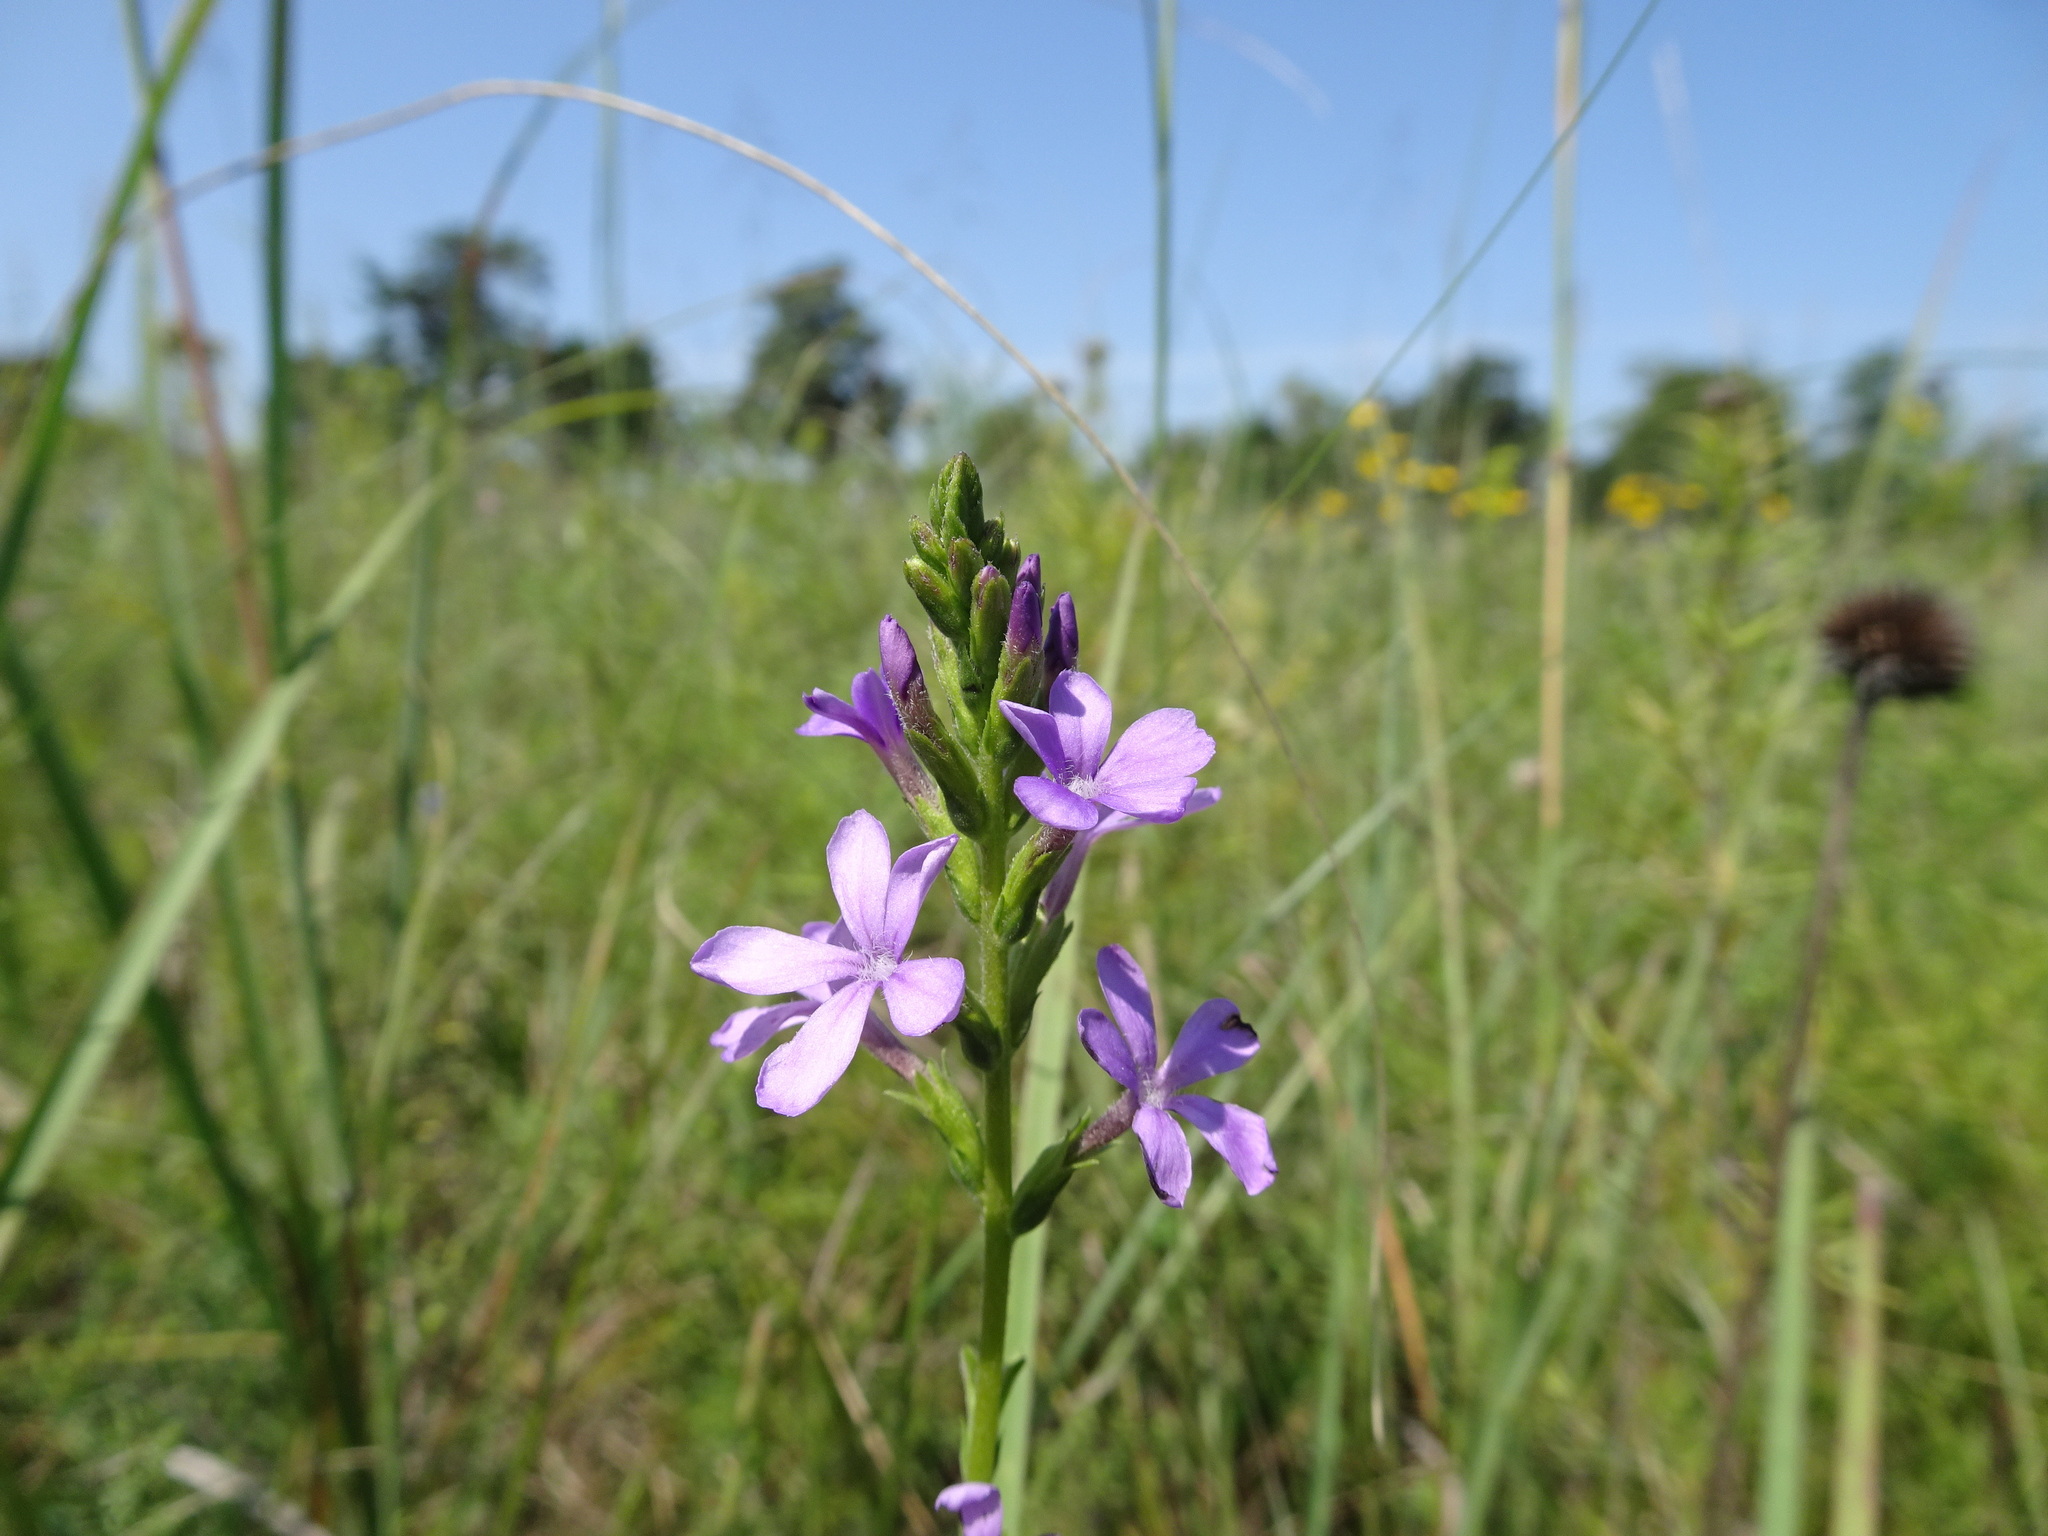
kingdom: Plantae
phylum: Tracheophyta
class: Magnoliopsida
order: Lamiales
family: Orobanchaceae
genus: Buchnera
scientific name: Buchnera americana
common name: American bluehearts
